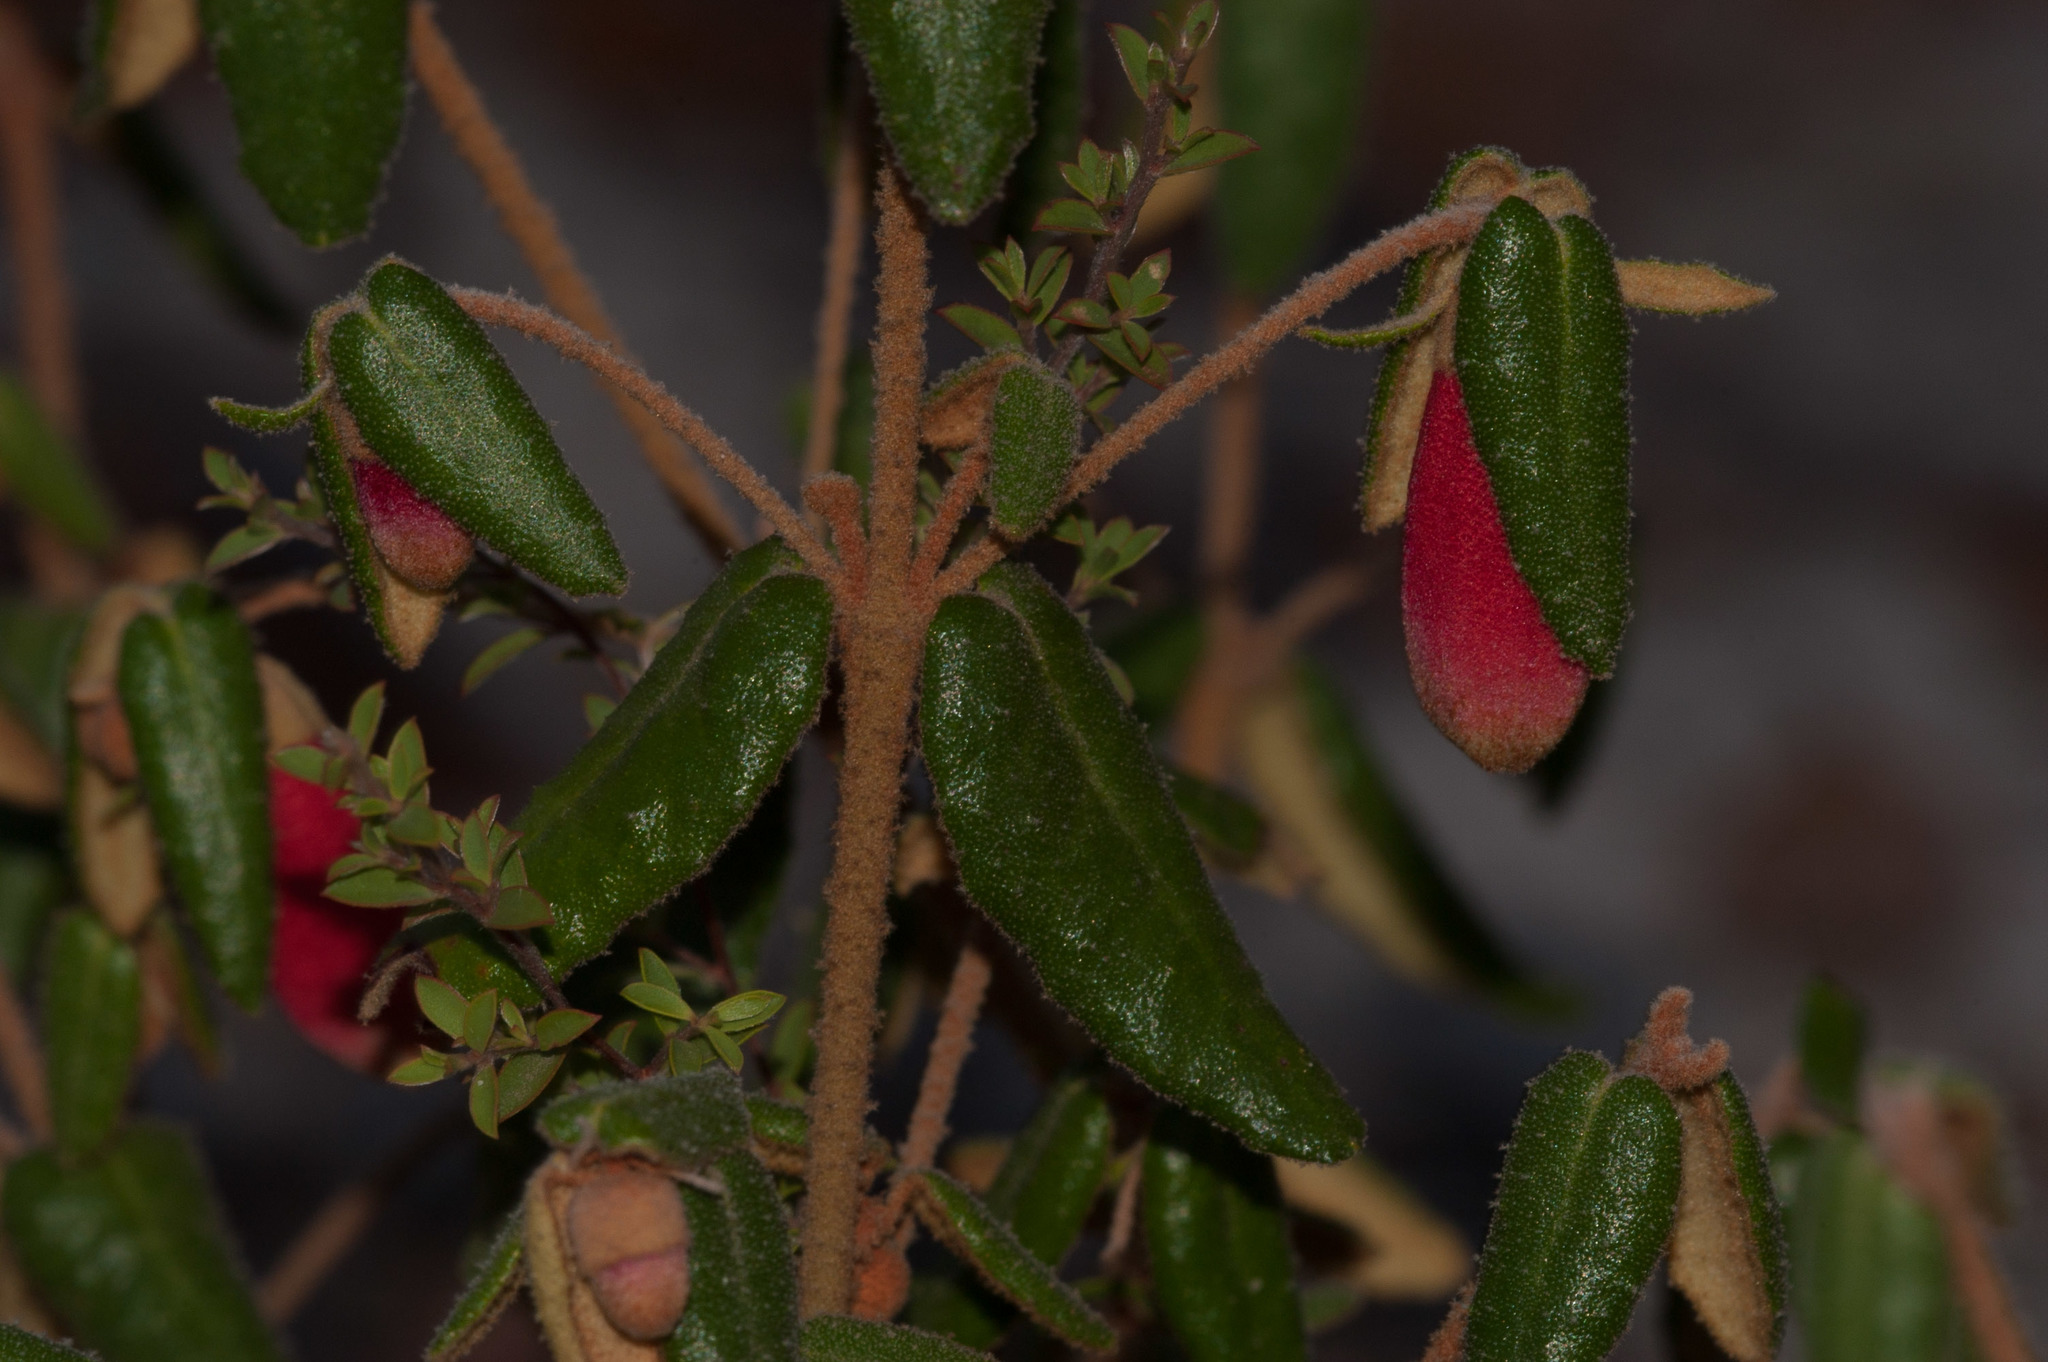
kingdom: Plantae
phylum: Tracheophyta
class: Magnoliopsida
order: Sapindales
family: Rutaceae
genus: Correa
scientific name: Correa reflexa
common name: Common correa
